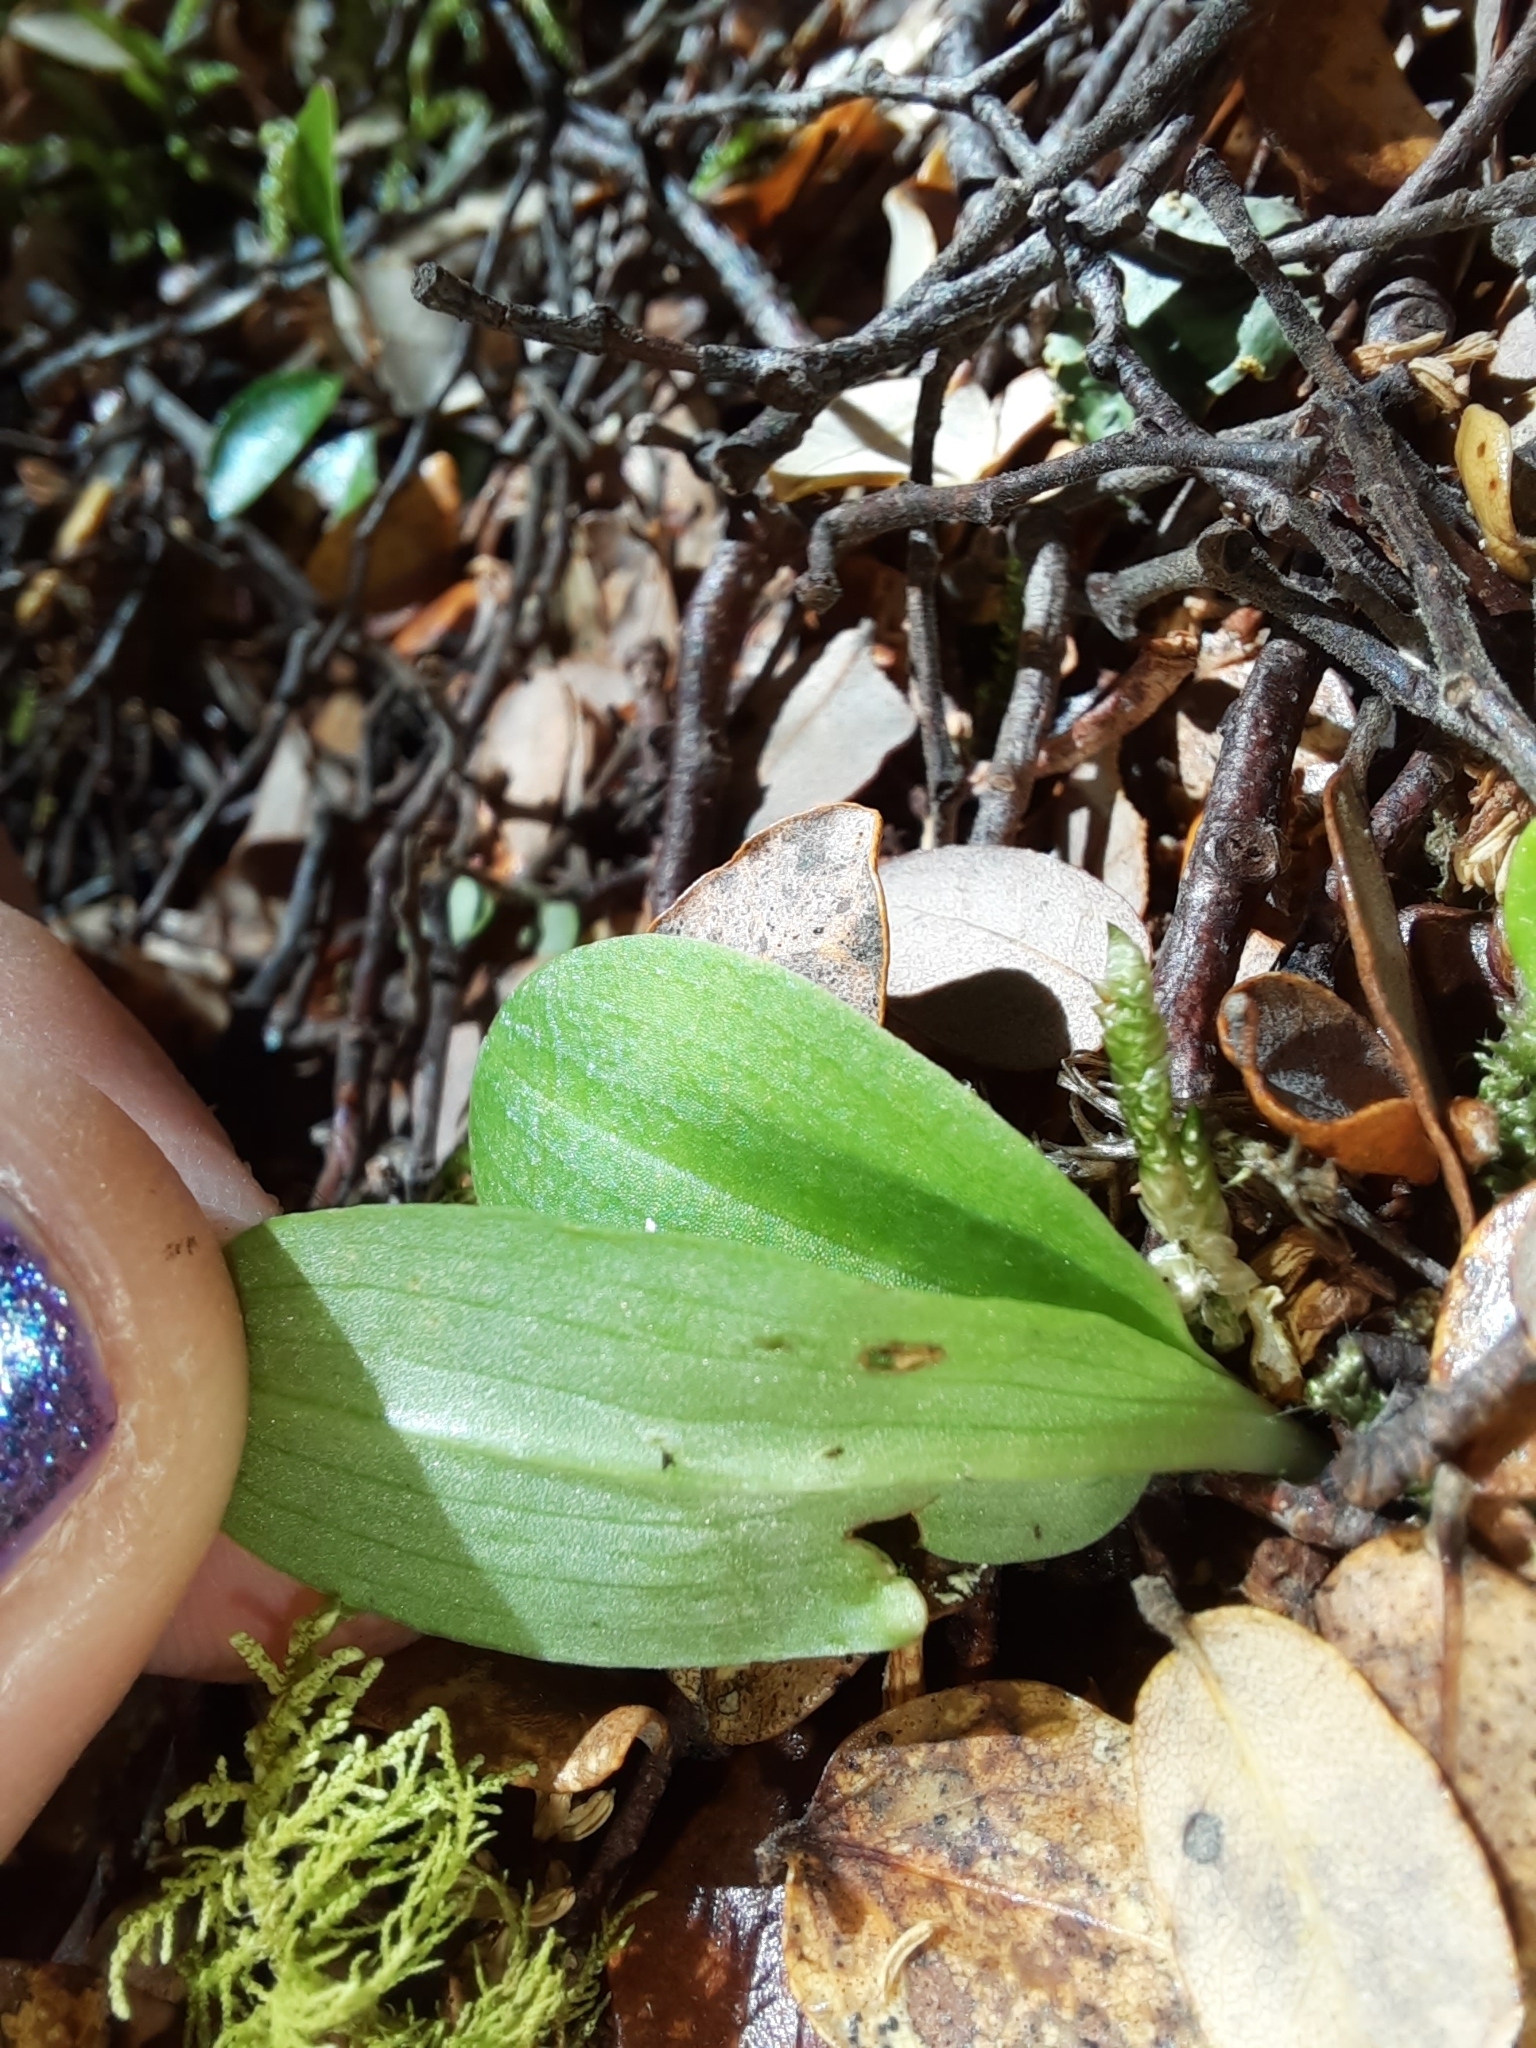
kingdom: Plantae
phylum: Tracheophyta
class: Liliopsida
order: Asparagales
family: Orchidaceae
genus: Chiloglottis
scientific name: Chiloglottis cornuta
